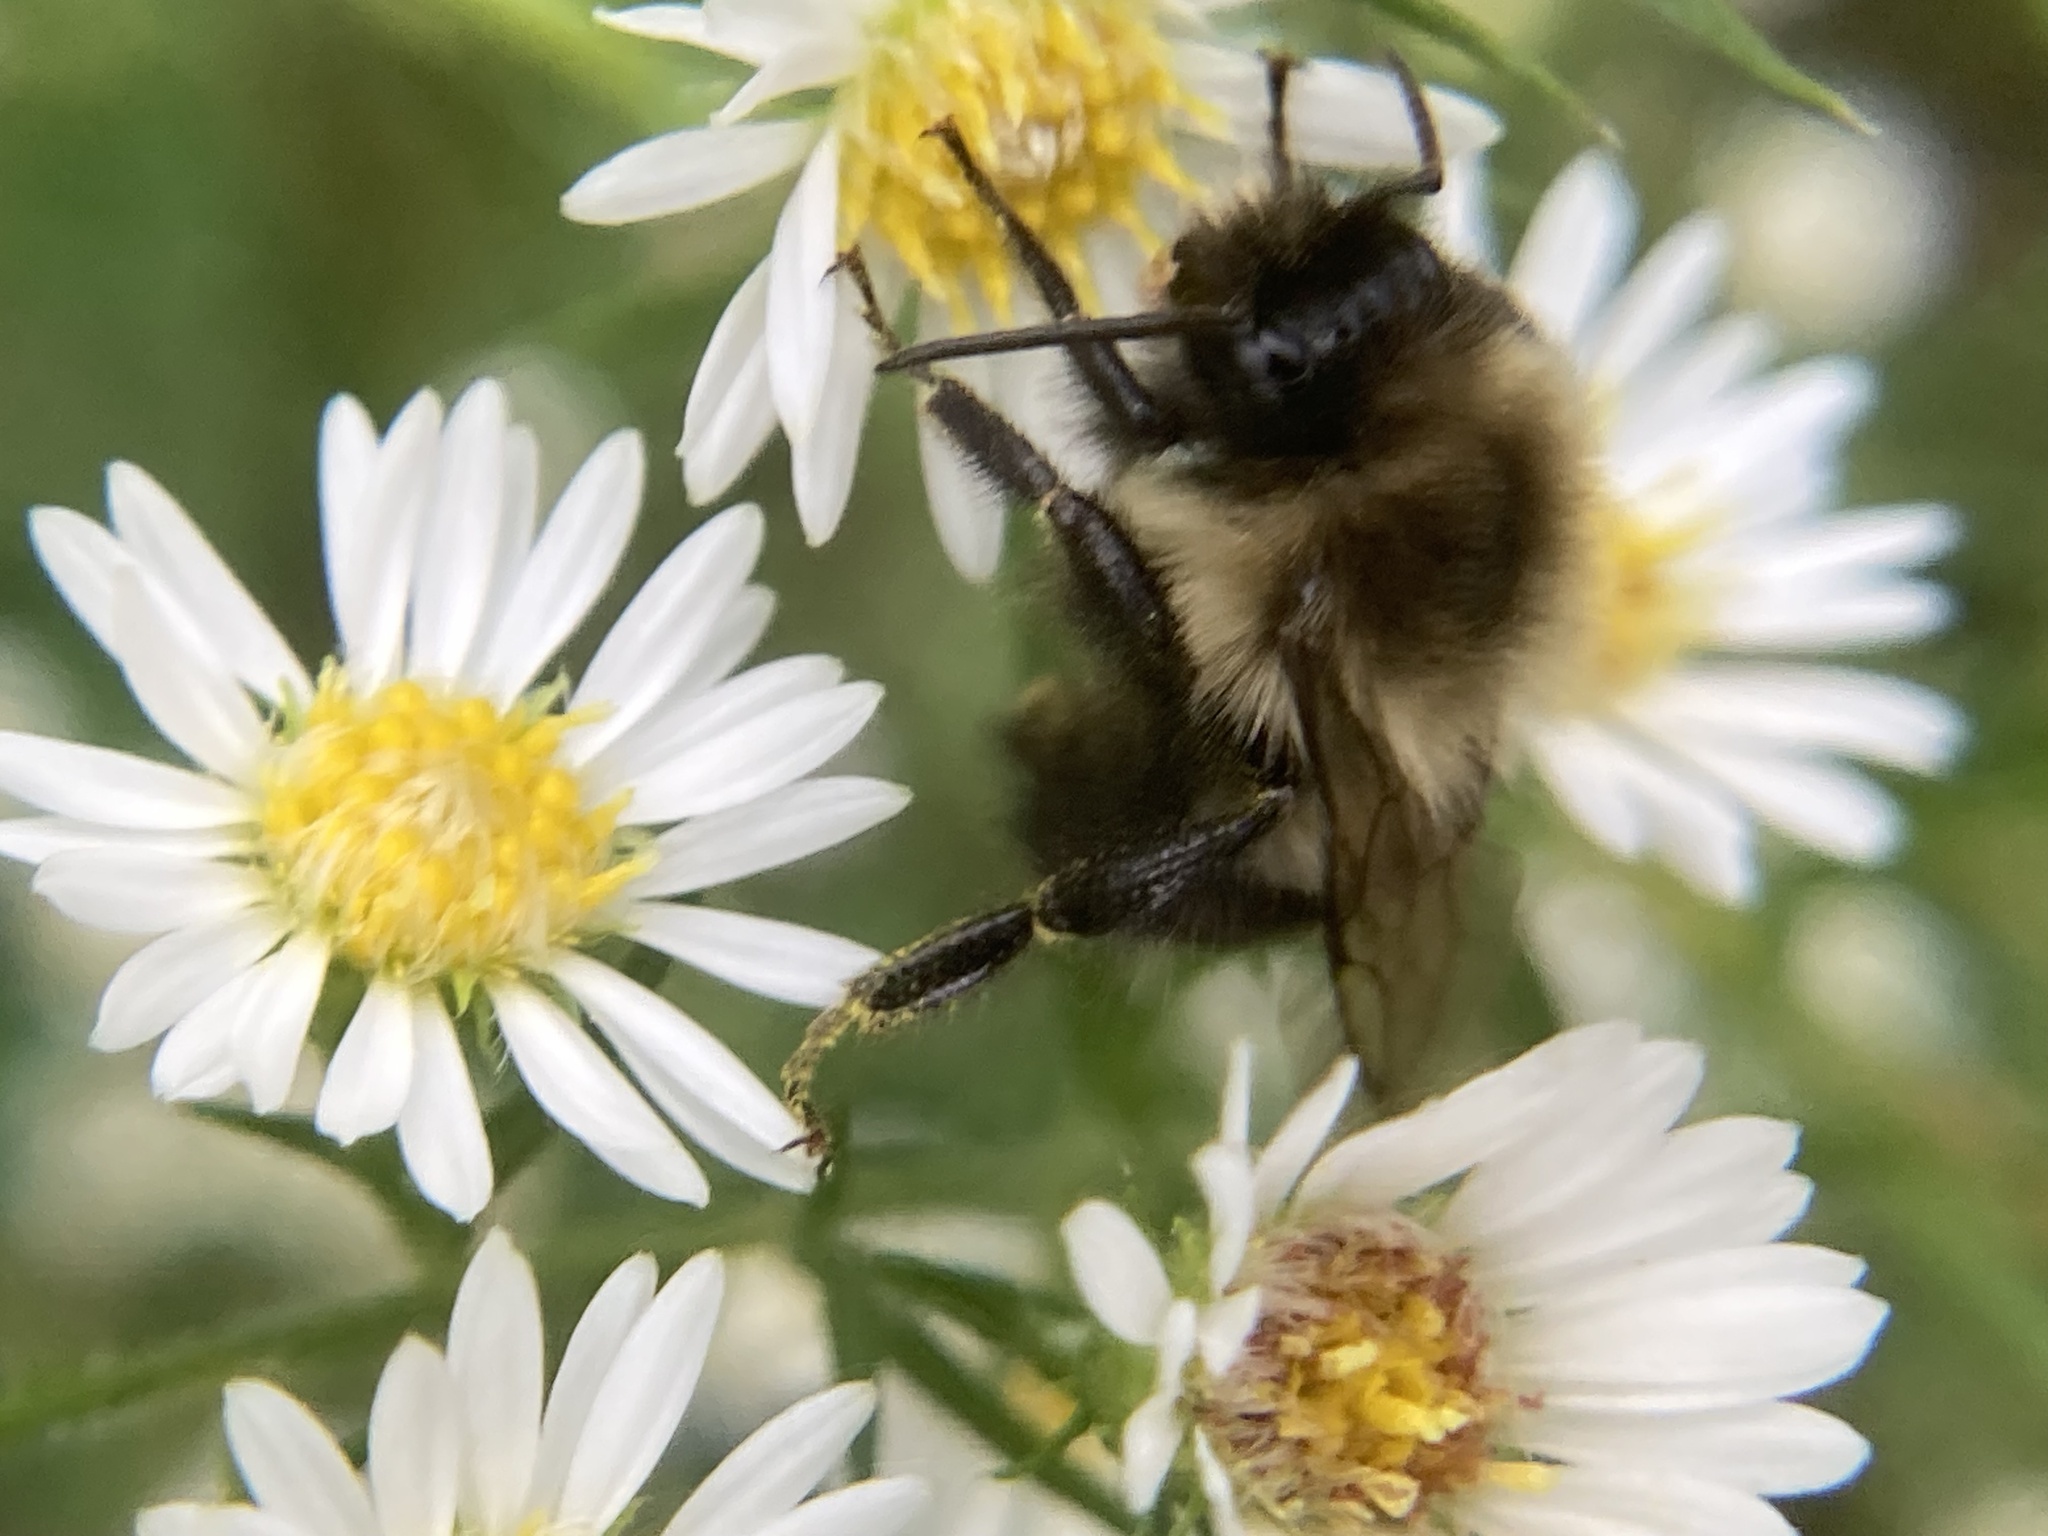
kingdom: Animalia
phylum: Arthropoda
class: Insecta
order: Hymenoptera
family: Apidae
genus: Bombus
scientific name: Bombus impatiens
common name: Common eastern bumble bee
